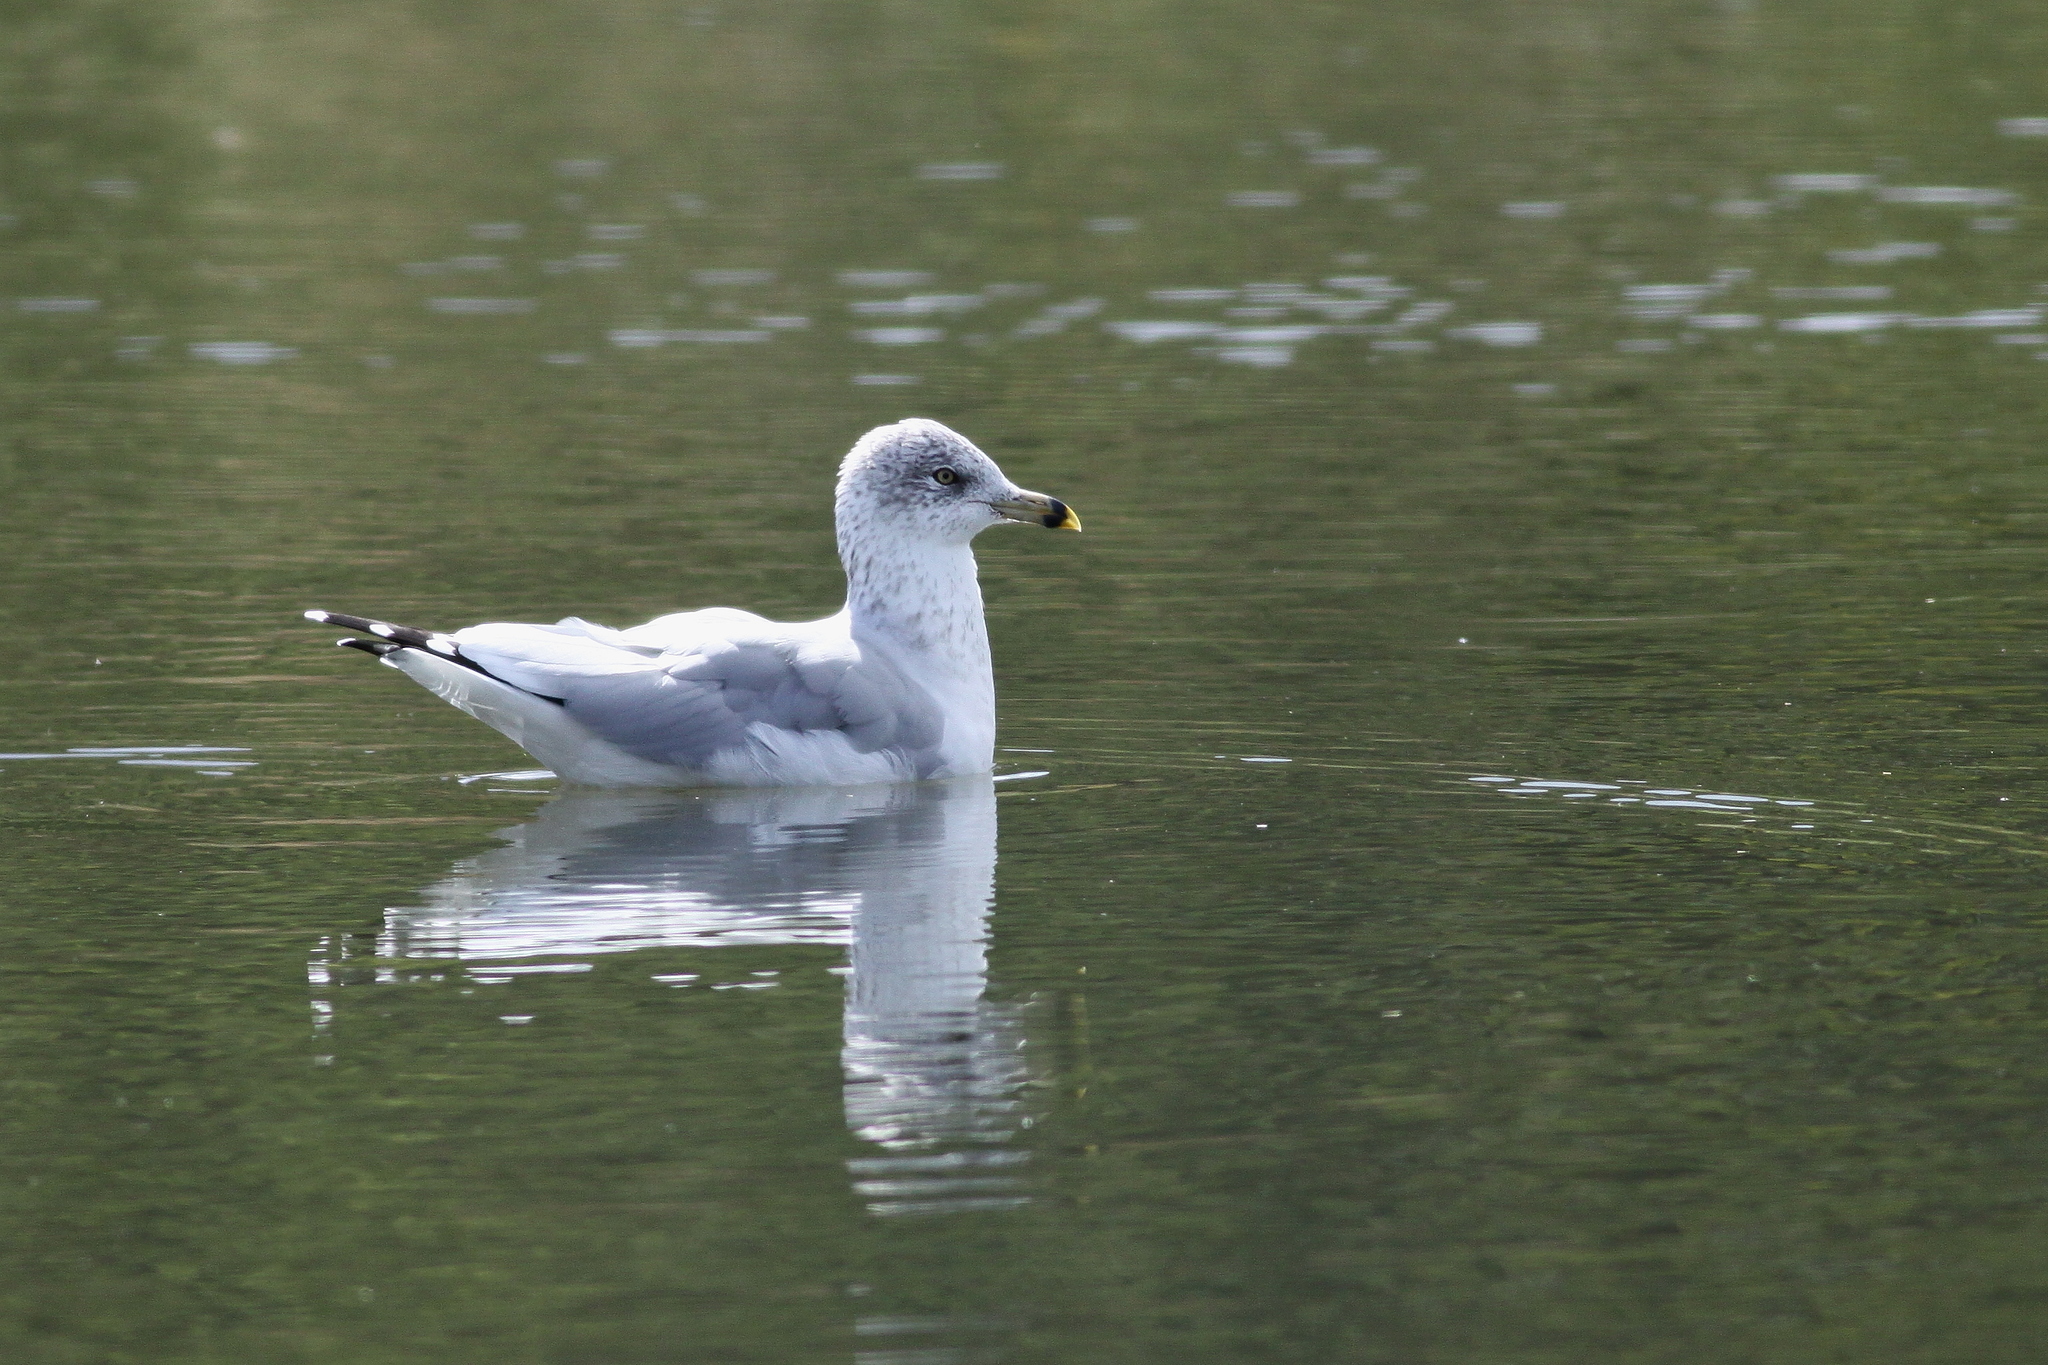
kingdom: Animalia
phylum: Chordata
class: Aves
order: Charadriiformes
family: Laridae
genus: Larus
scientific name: Larus delawarensis
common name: Ring-billed gull
